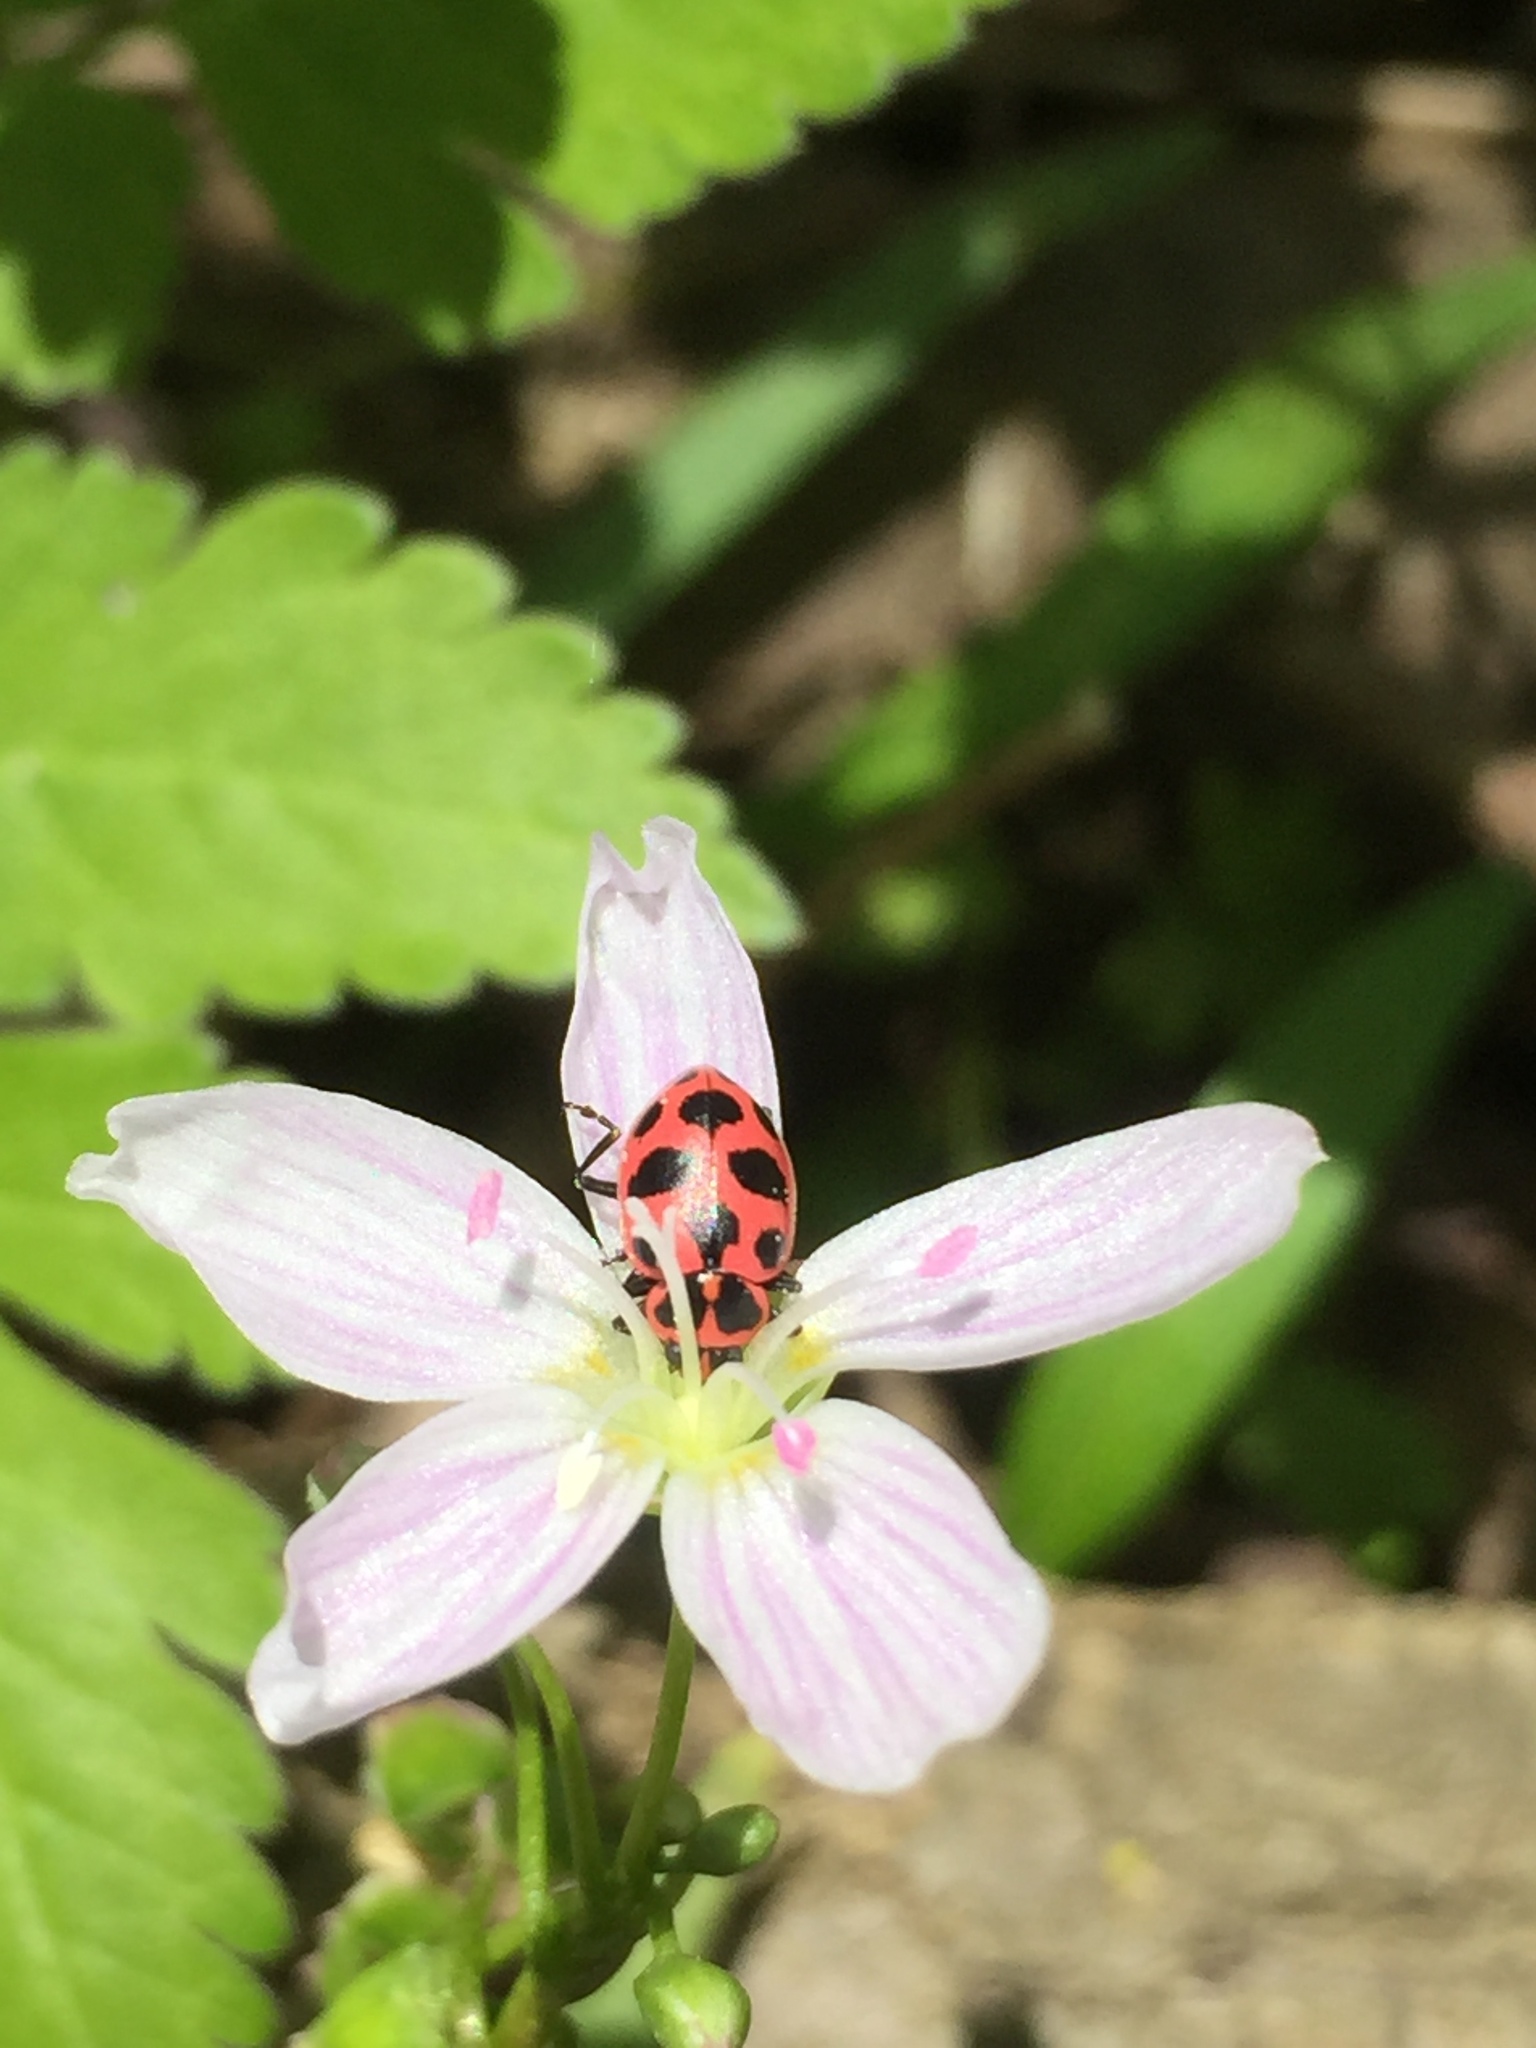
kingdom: Animalia
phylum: Arthropoda
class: Insecta
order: Coleoptera
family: Coccinellidae
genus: Coleomegilla
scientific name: Coleomegilla maculata
